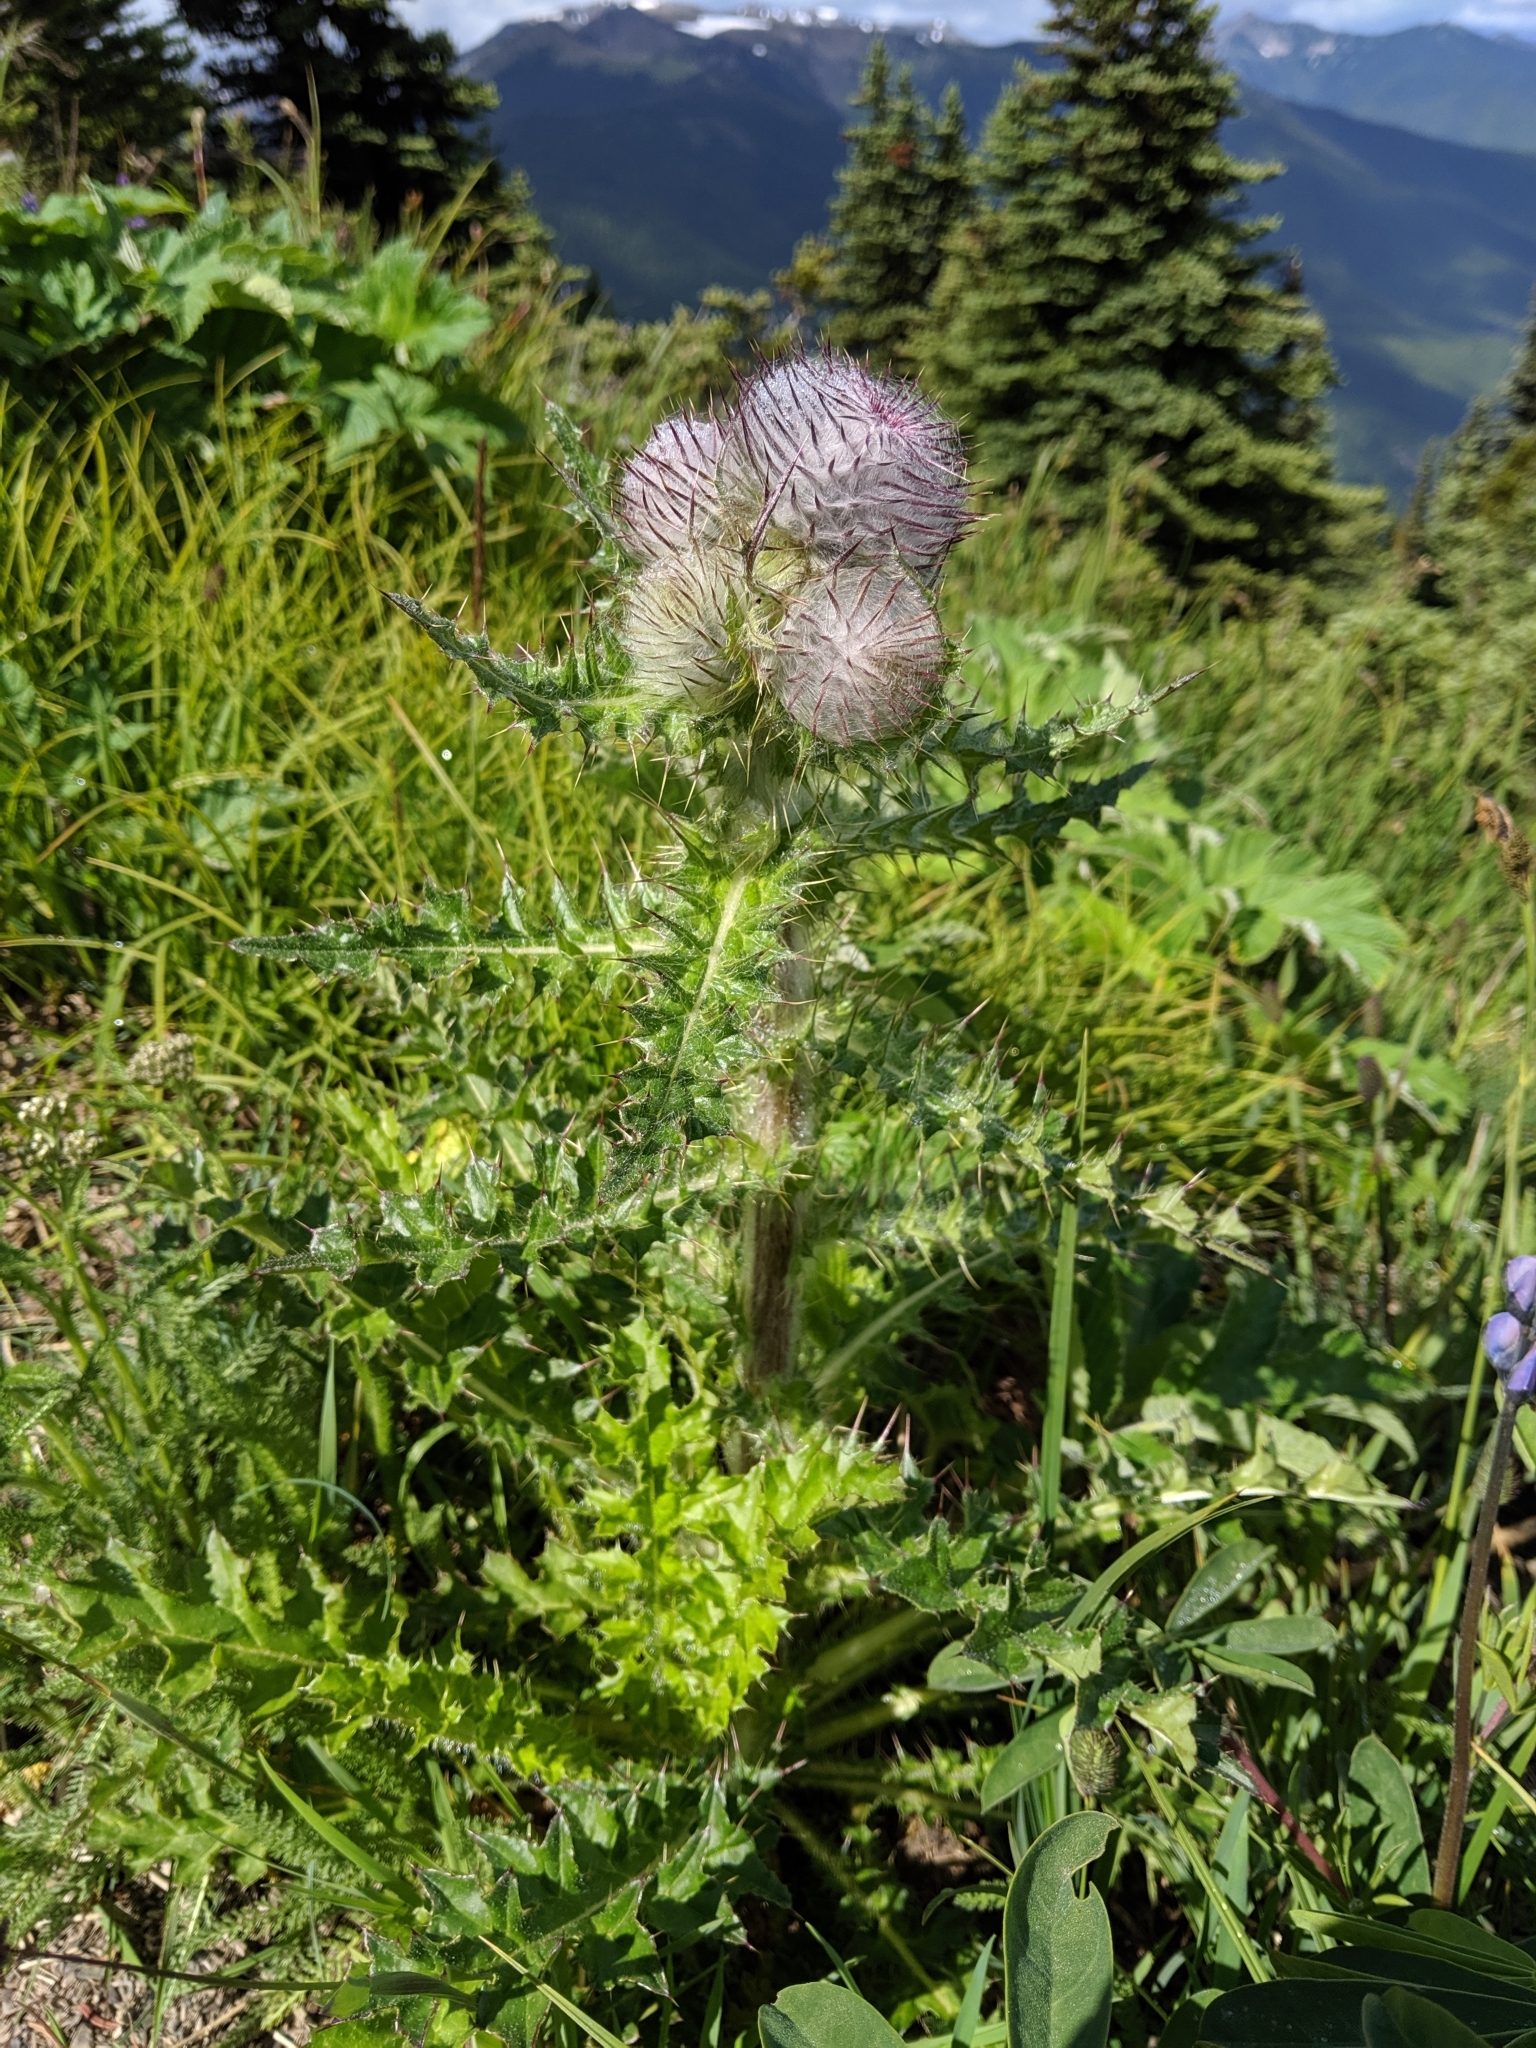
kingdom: Plantae
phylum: Tracheophyta
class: Magnoliopsida
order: Asterales
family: Asteraceae
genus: Cirsium
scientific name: Cirsium edule
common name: Indian thistle
